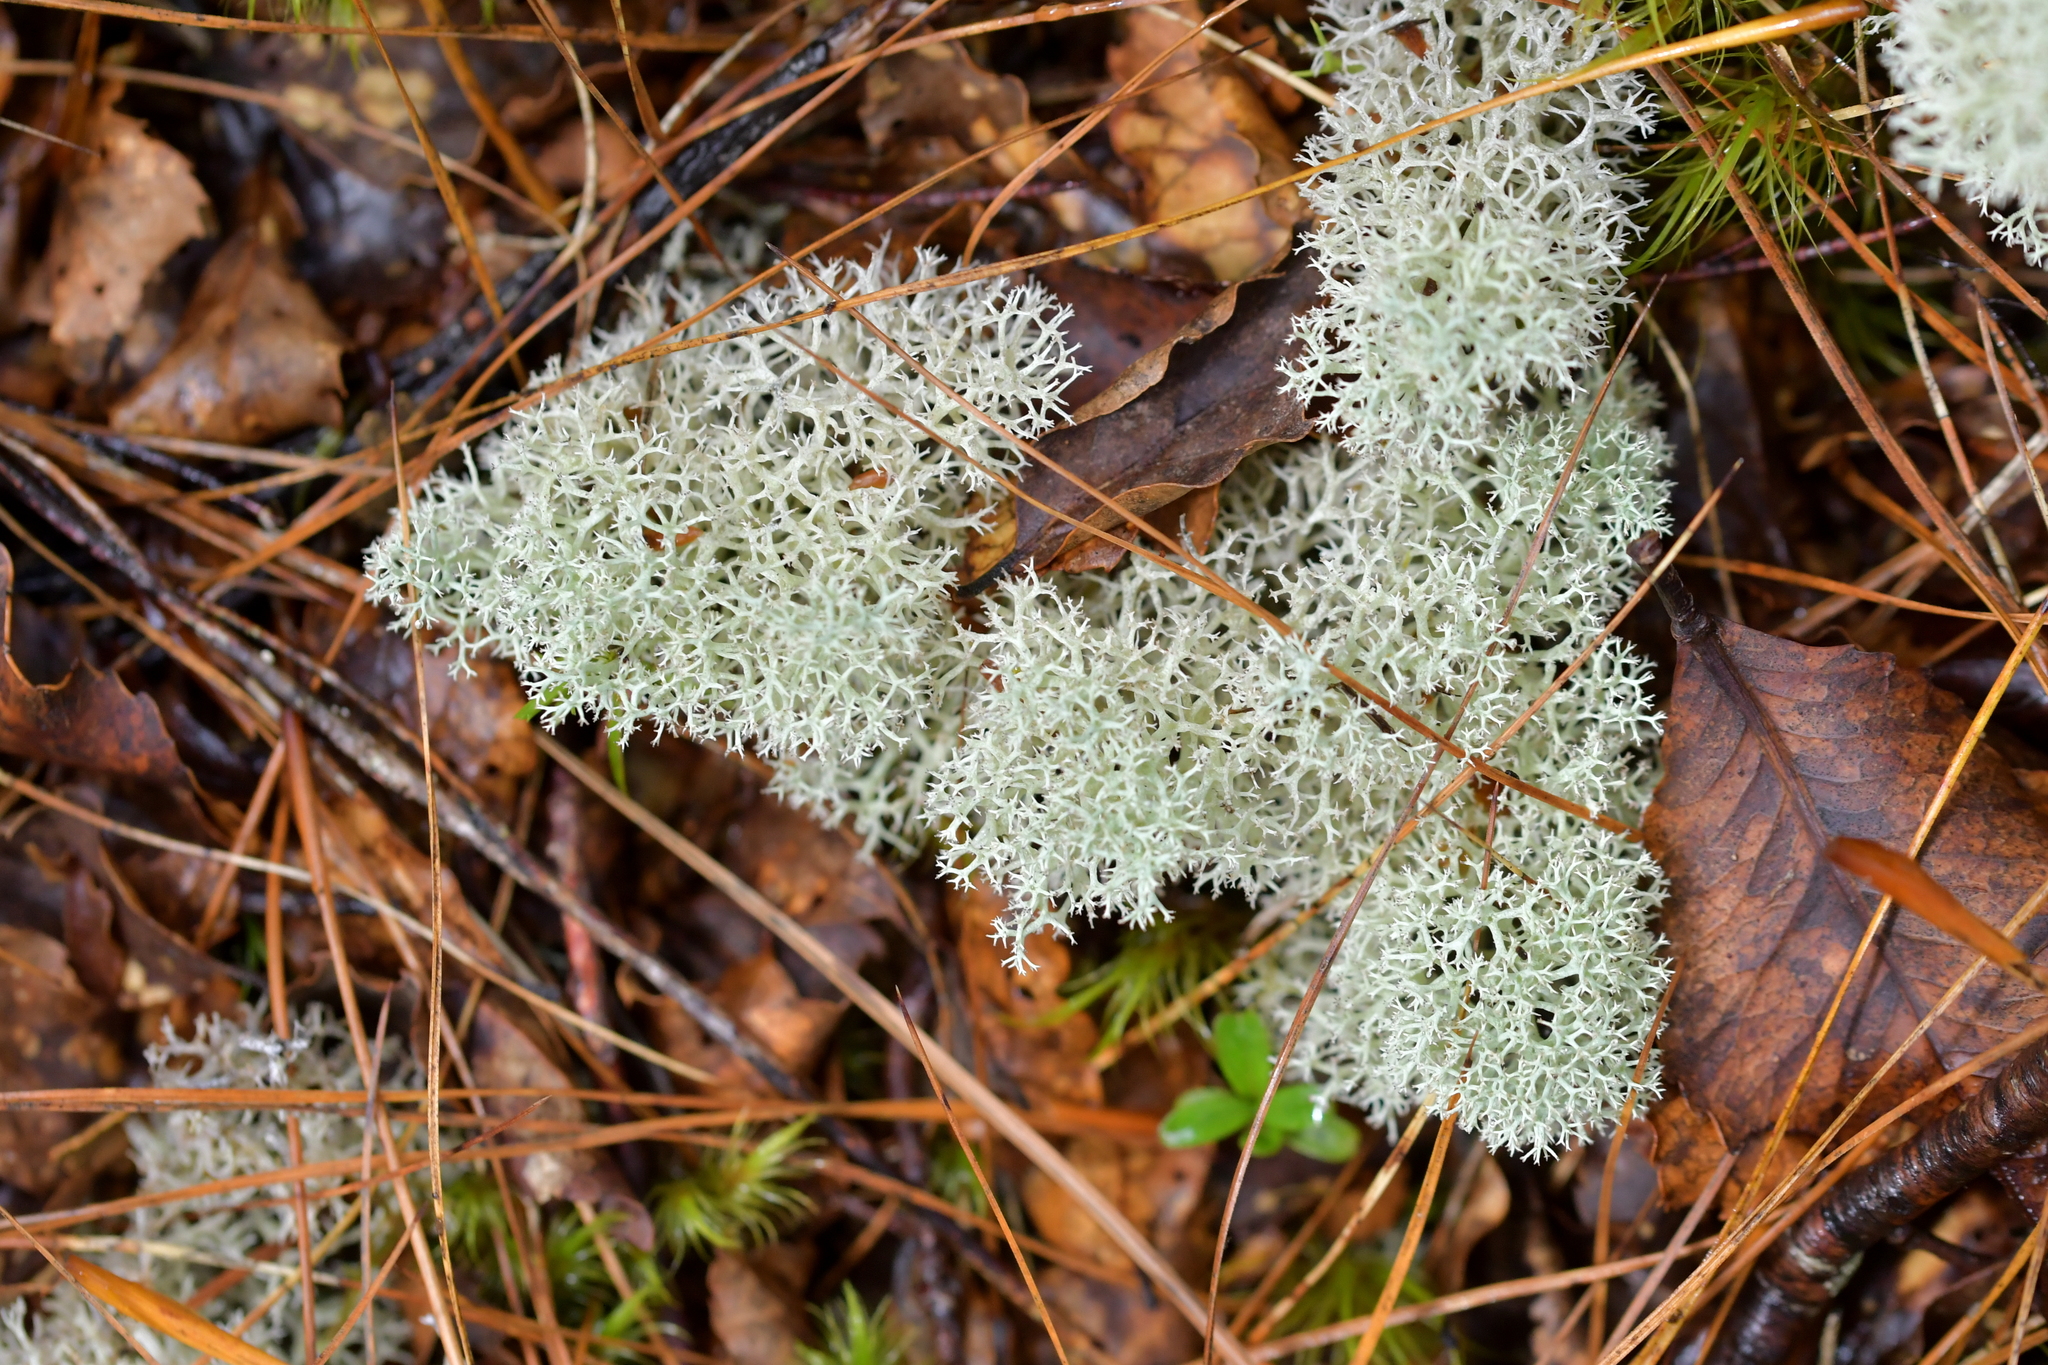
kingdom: Fungi
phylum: Ascomycota
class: Lecanoromycetes
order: Lecanorales
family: Cladoniaceae
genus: Cladonia
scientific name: Cladonia confusa
